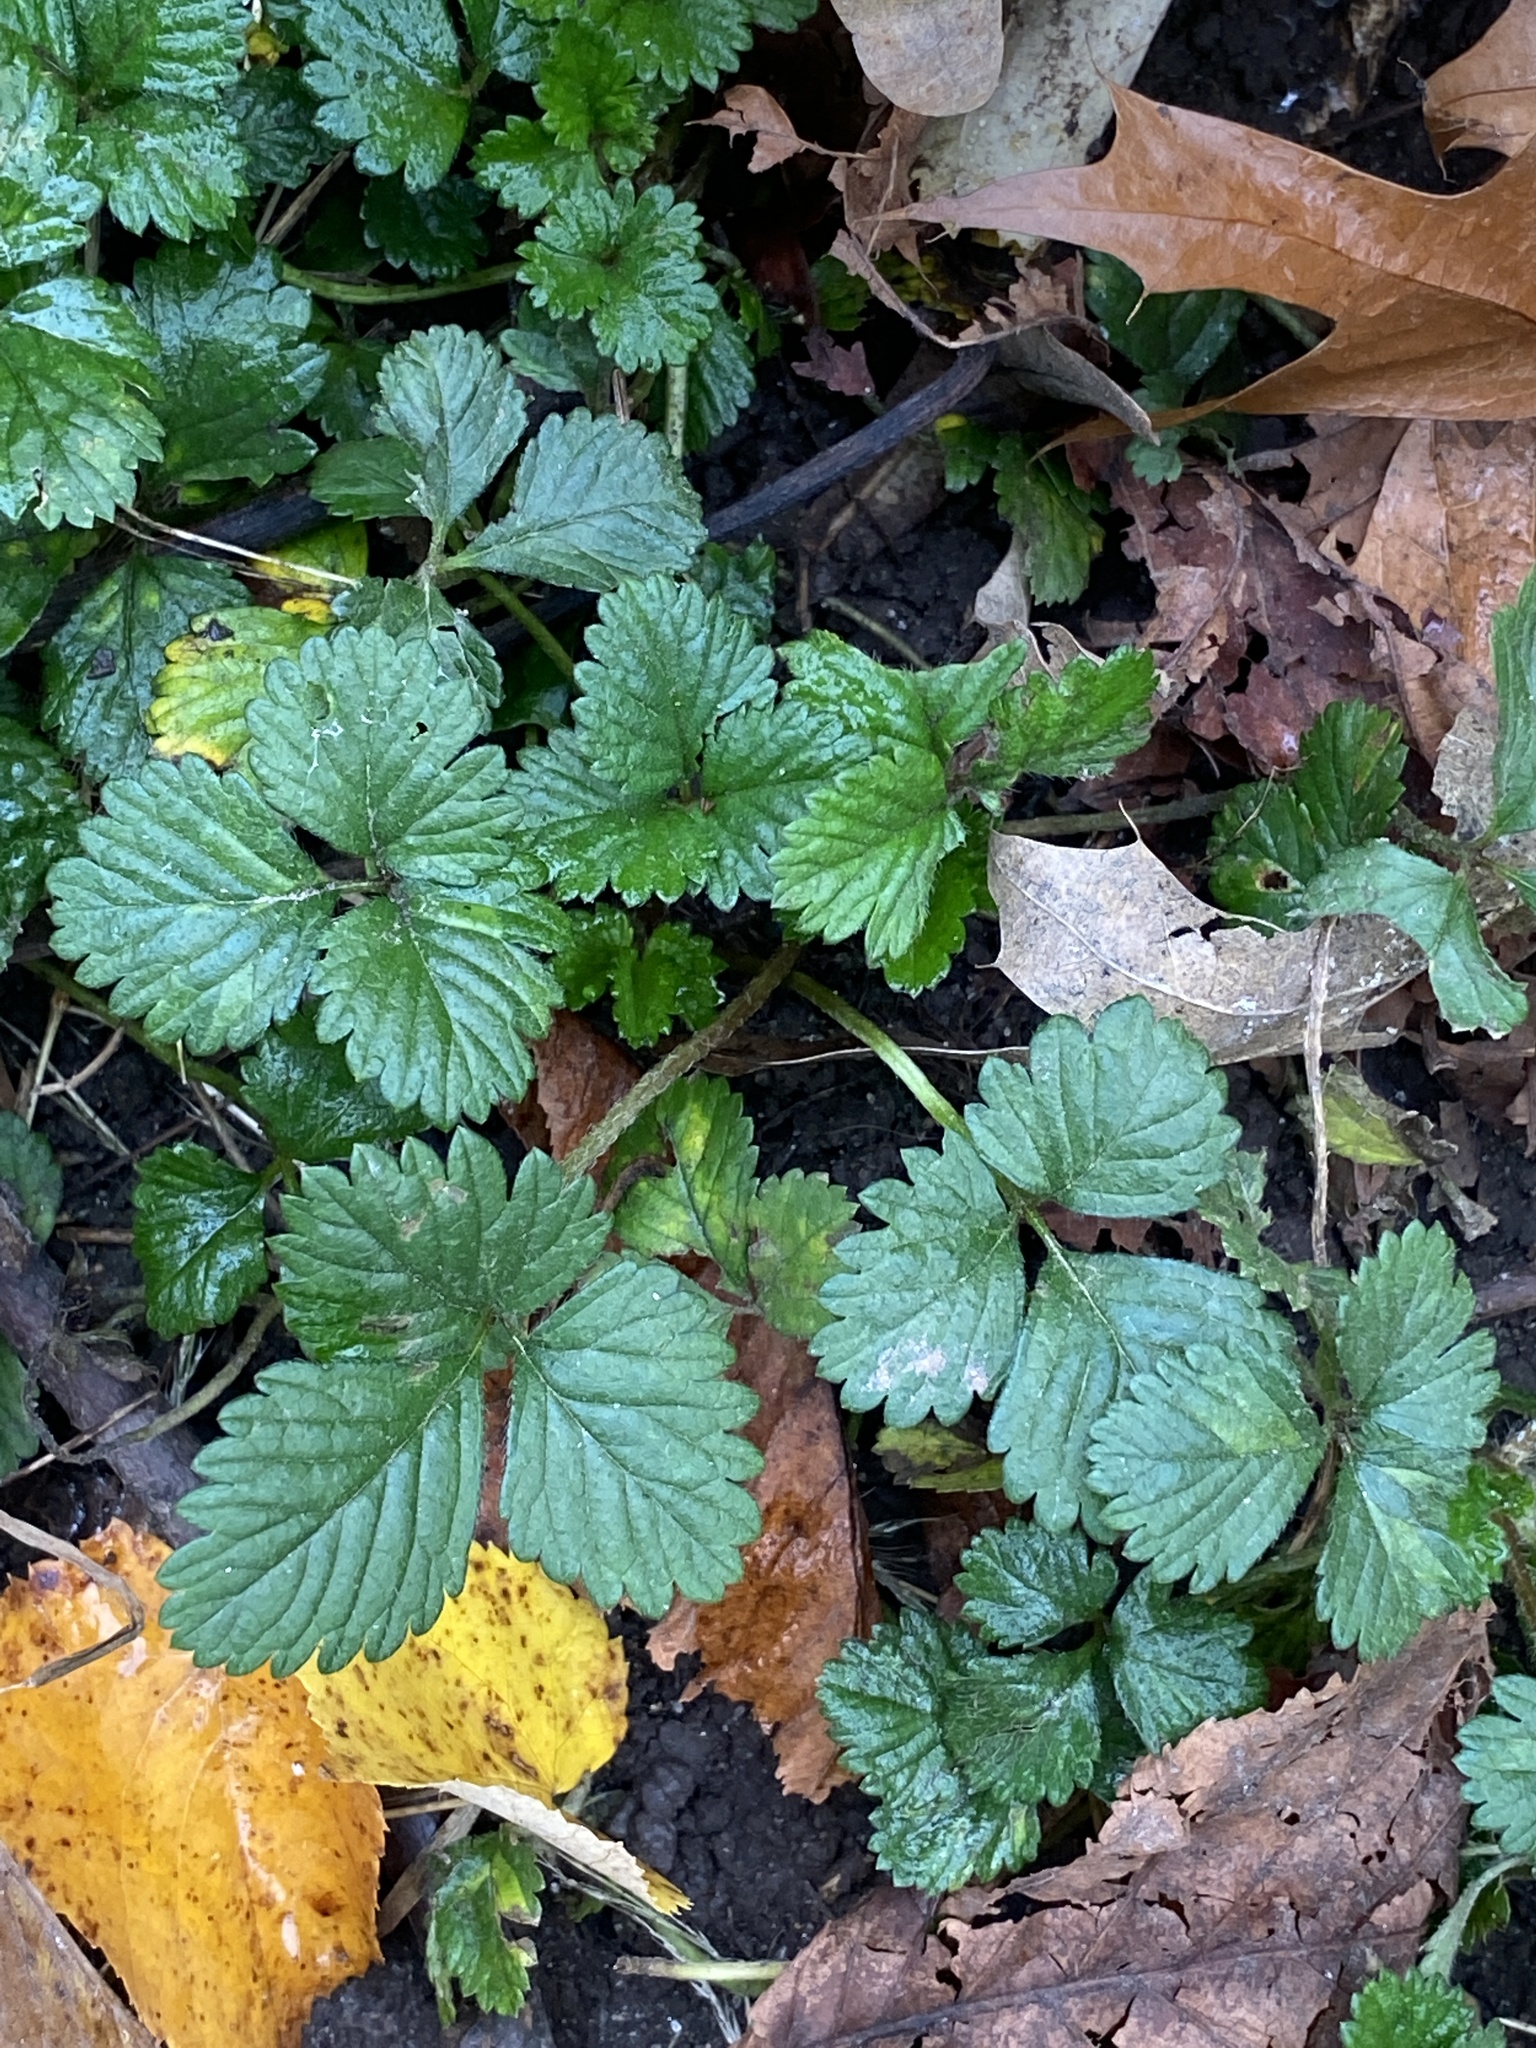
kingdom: Plantae
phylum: Tracheophyta
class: Magnoliopsida
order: Rosales
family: Rosaceae
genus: Potentilla
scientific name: Potentilla indica
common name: Yellow-flowered strawberry
